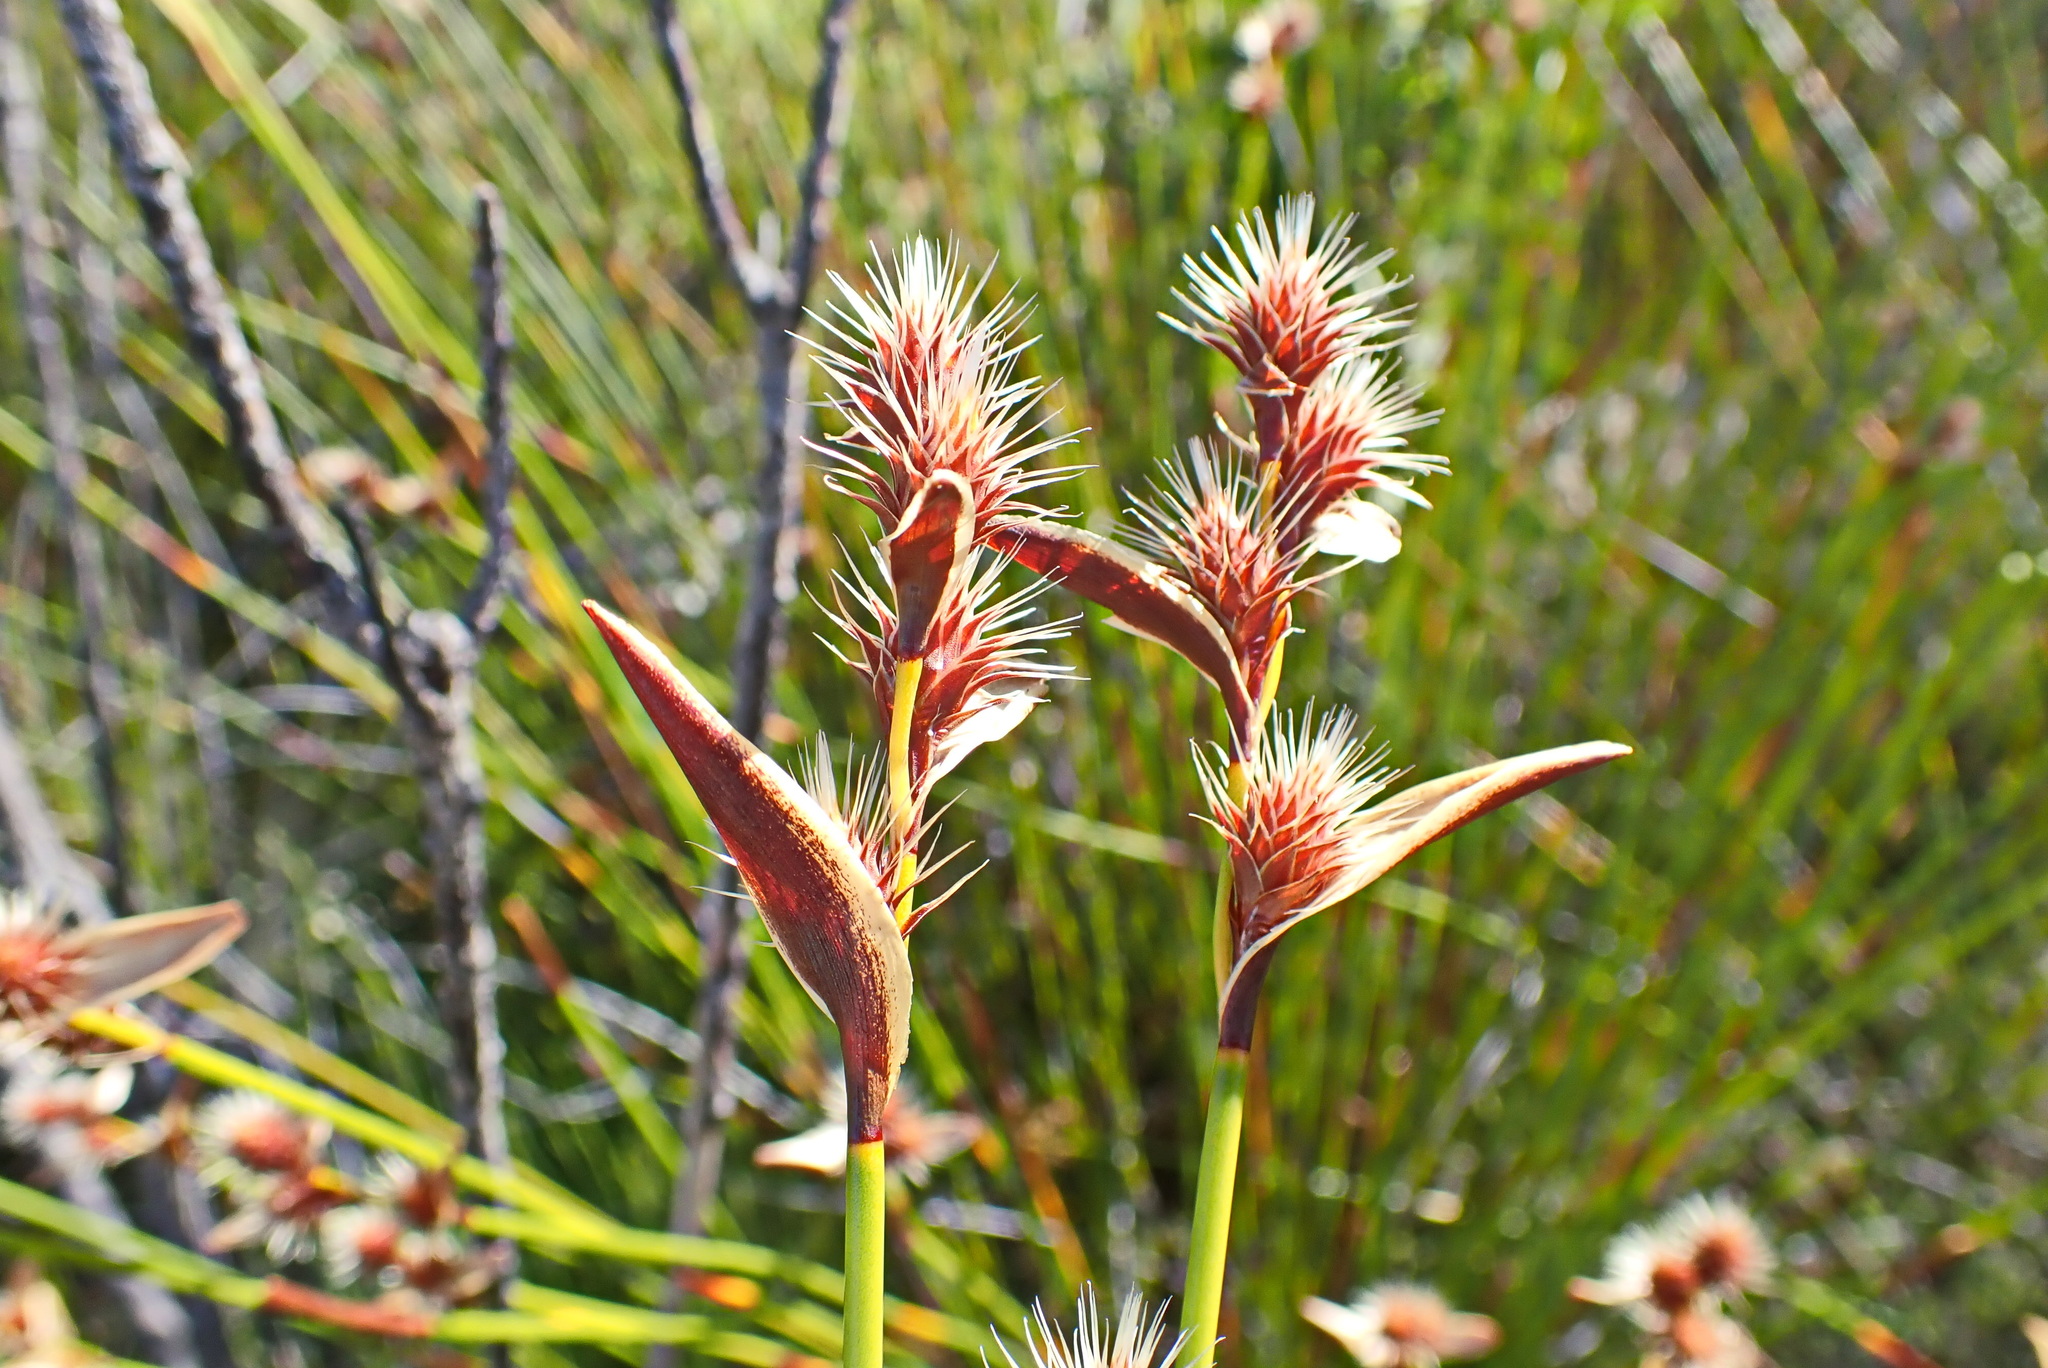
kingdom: Plantae
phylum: Tracheophyta
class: Liliopsida
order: Poales
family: Restionaceae
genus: Hypodiscus
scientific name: Hypodiscus aristatus
